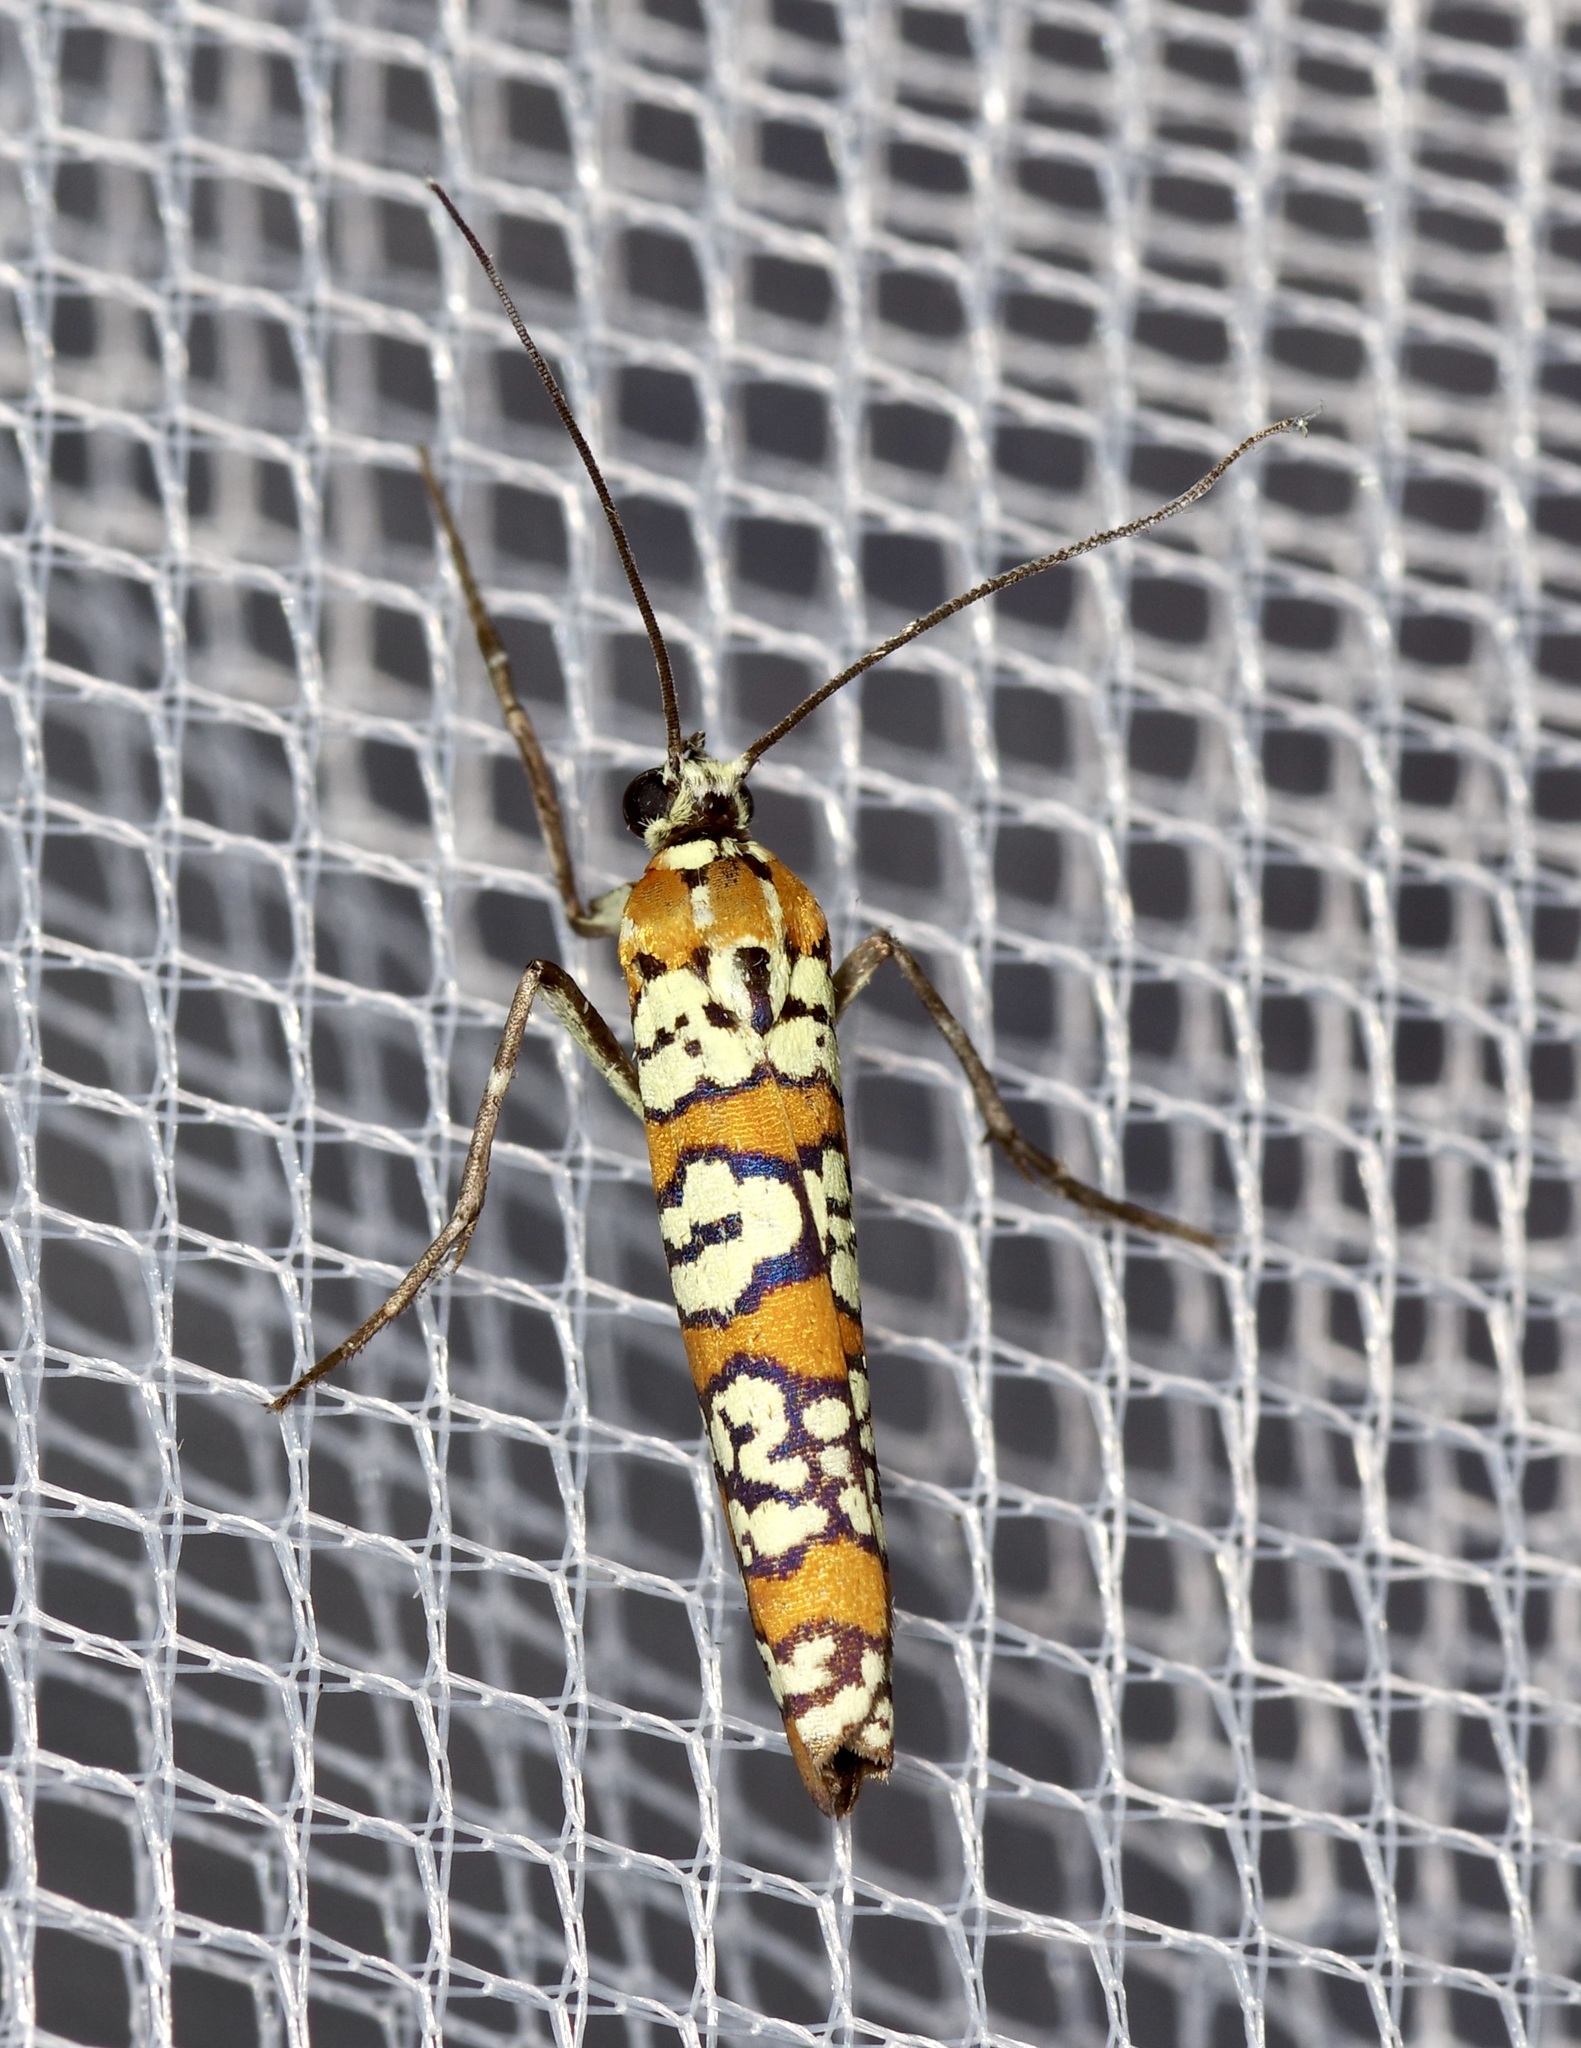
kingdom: Animalia
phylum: Arthropoda
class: Insecta
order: Lepidoptera
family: Attevidae
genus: Atteva
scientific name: Atteva punctella
